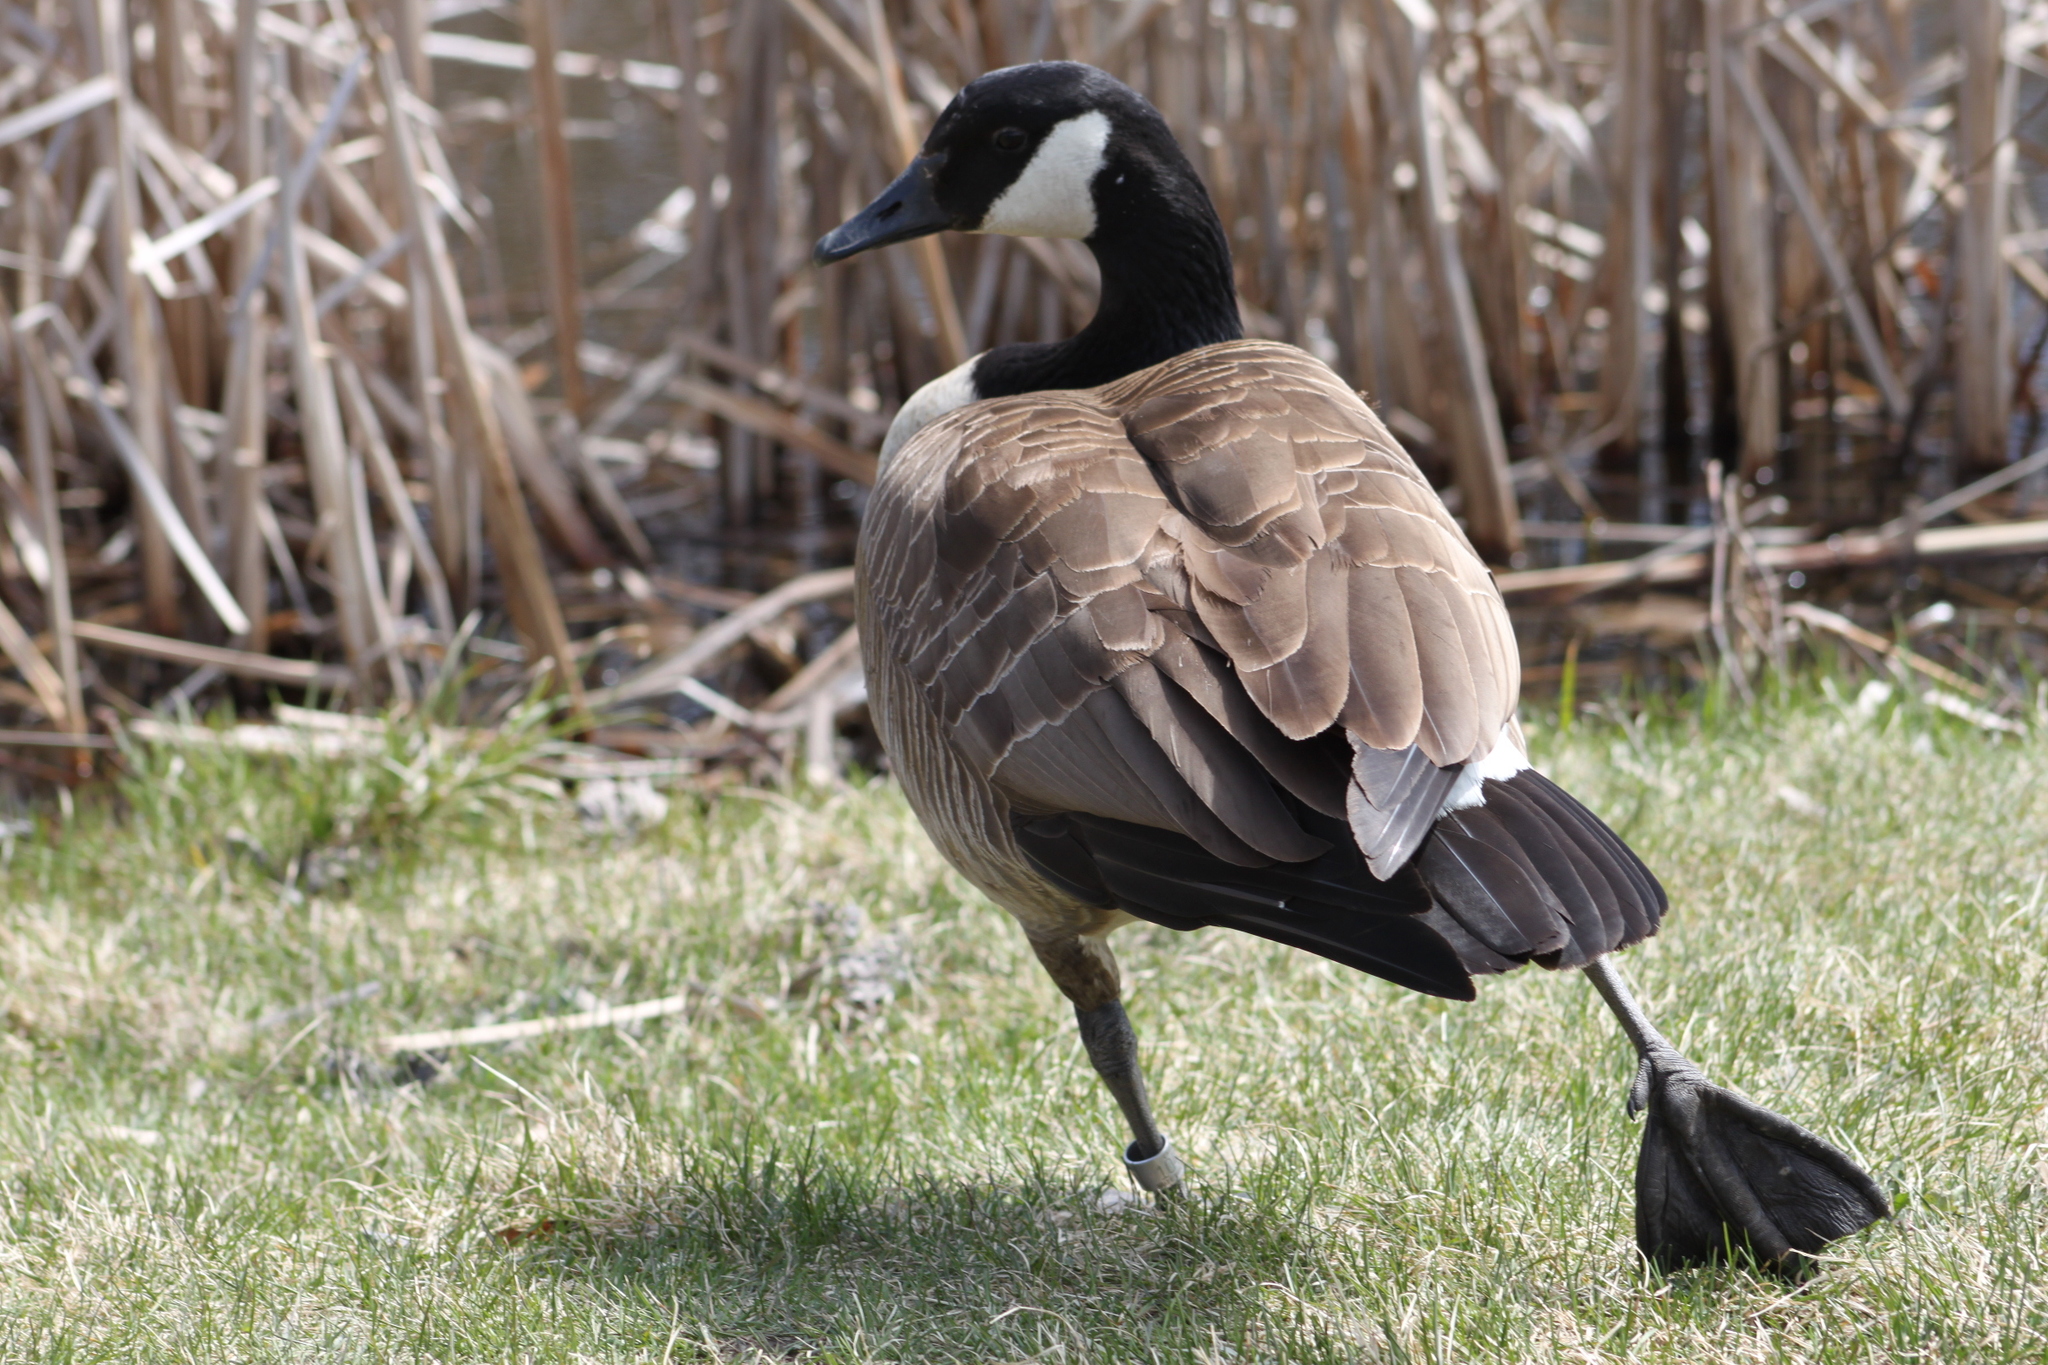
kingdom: Animalia
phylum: Chordata
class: Aves
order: Anseriformes
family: Anatidae
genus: Branta
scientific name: Branta canadensis
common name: Canada goose
